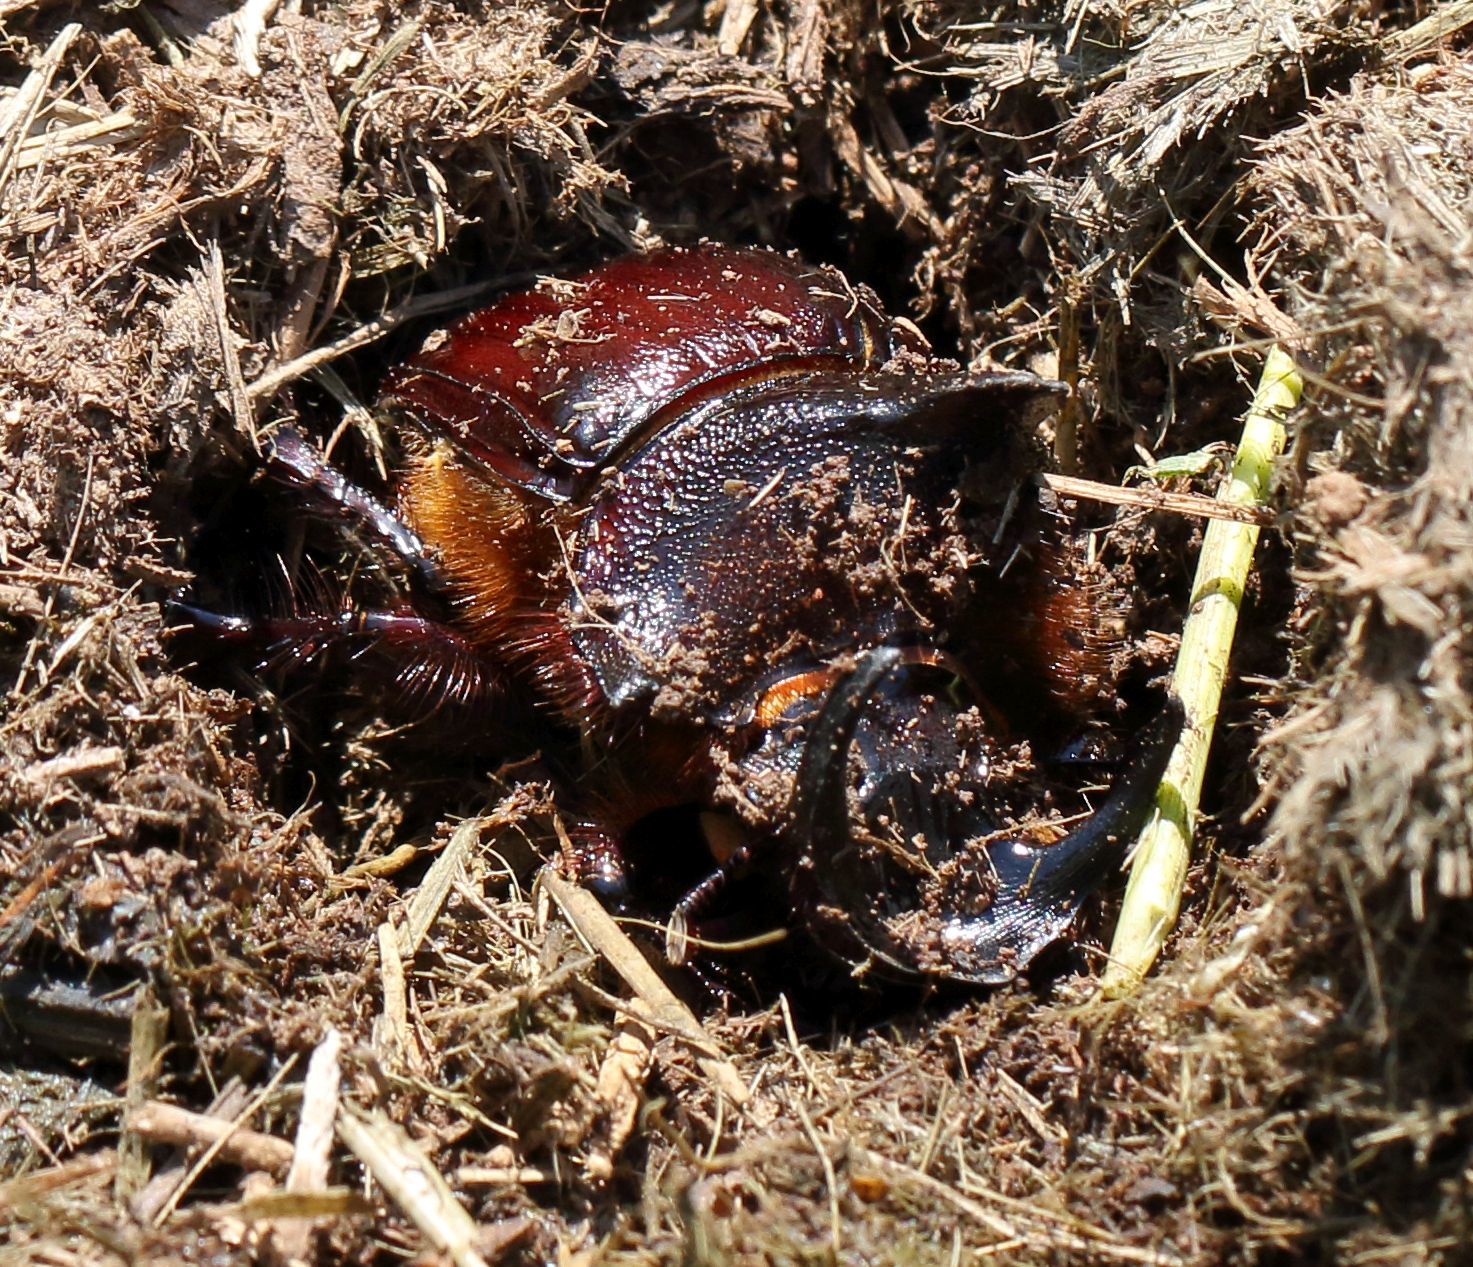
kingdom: Animalia
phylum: Arthropoda
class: Insecta
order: Coleoptera
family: Scarabaeidae
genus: Heliocopris
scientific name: Heliocopris andersoni
